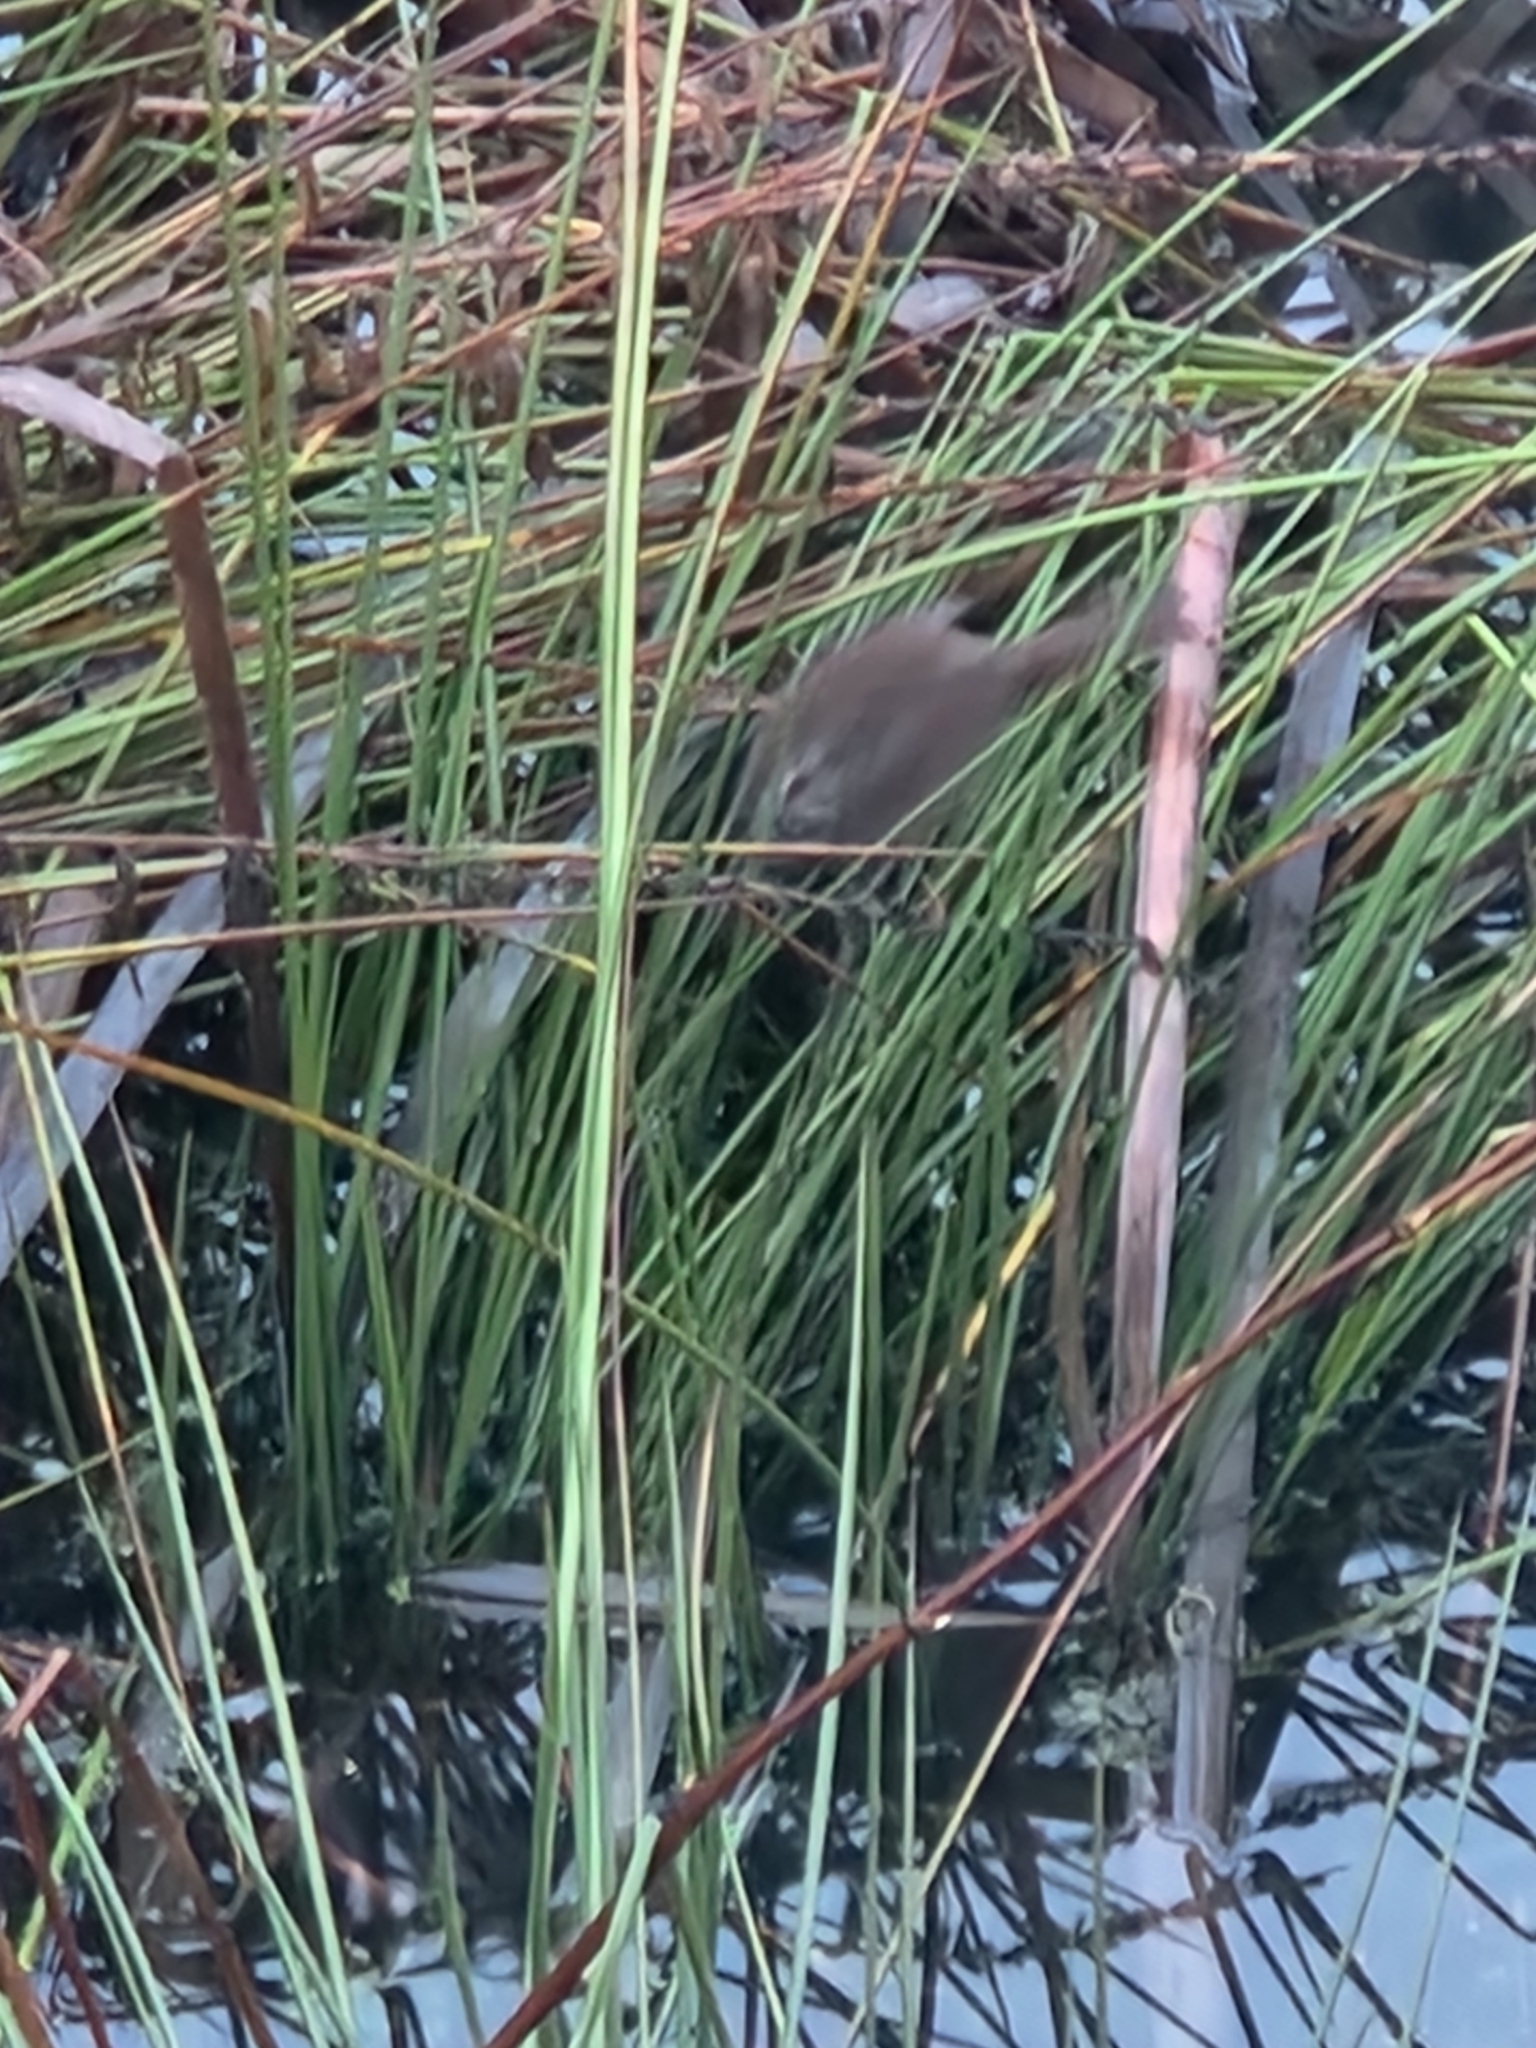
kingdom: Animalia
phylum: Chordata
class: Aves
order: Passeriformes
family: Passerellidae
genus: Melospiza
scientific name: Melospiza melodia
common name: Song sparrow
